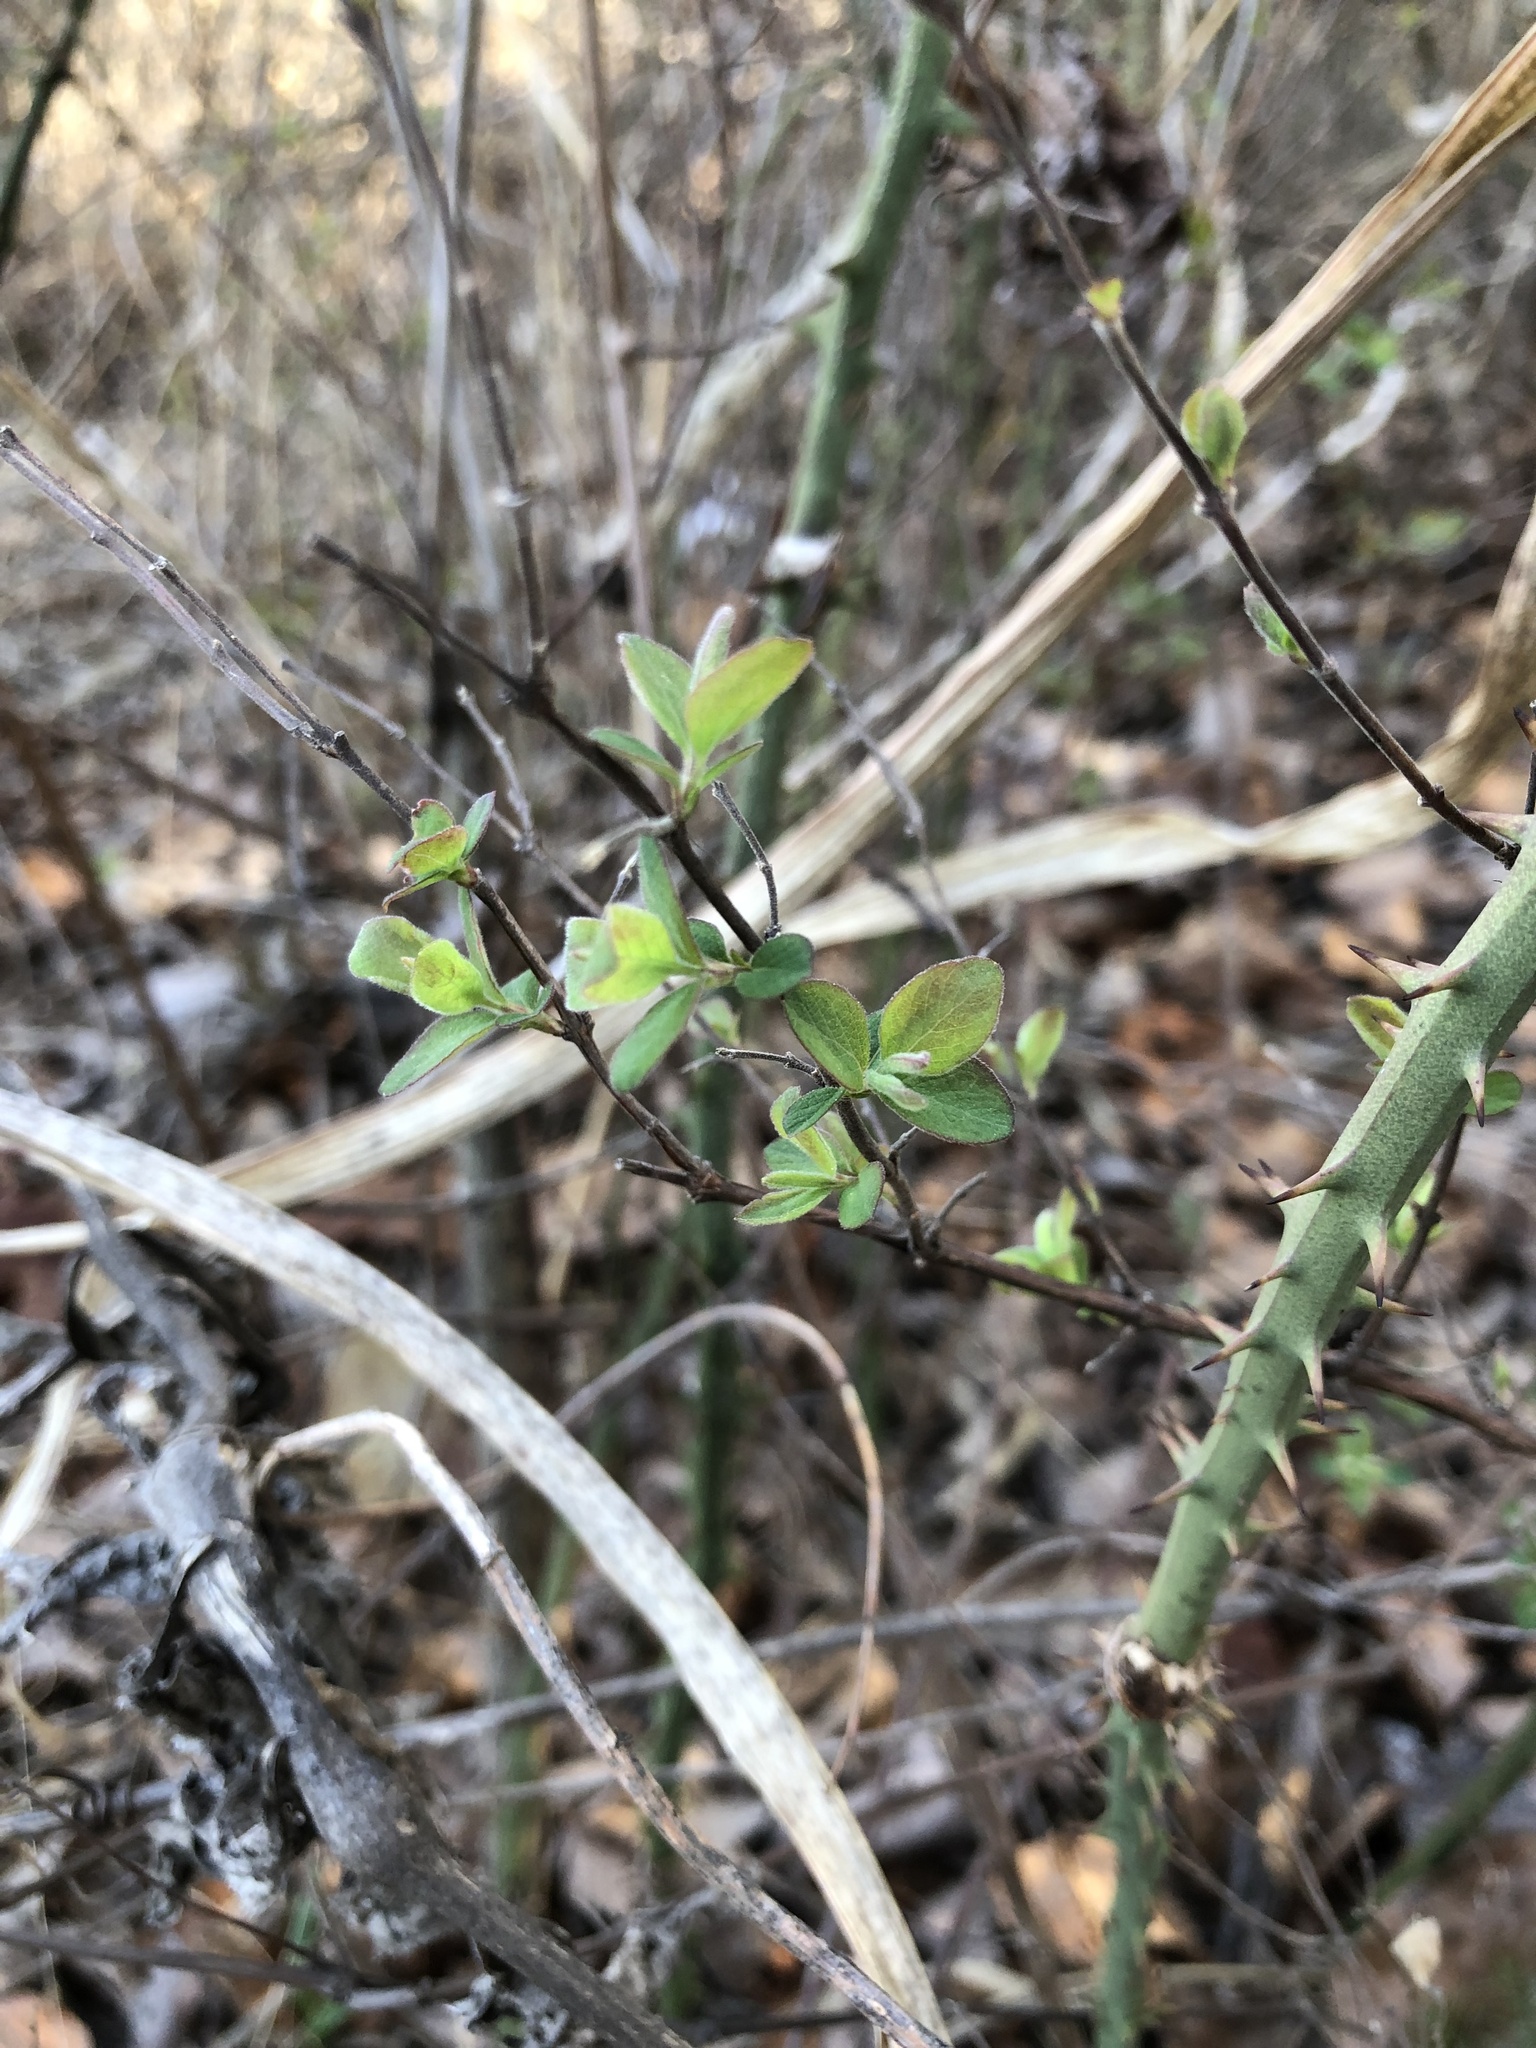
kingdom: Plantae
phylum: Tracheophyta
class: Magnoliopsida
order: Dipsacales
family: Caprifoliaceae
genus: Symphoricarpos
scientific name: Symphoricarpos orbiculatus
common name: Coralberry
